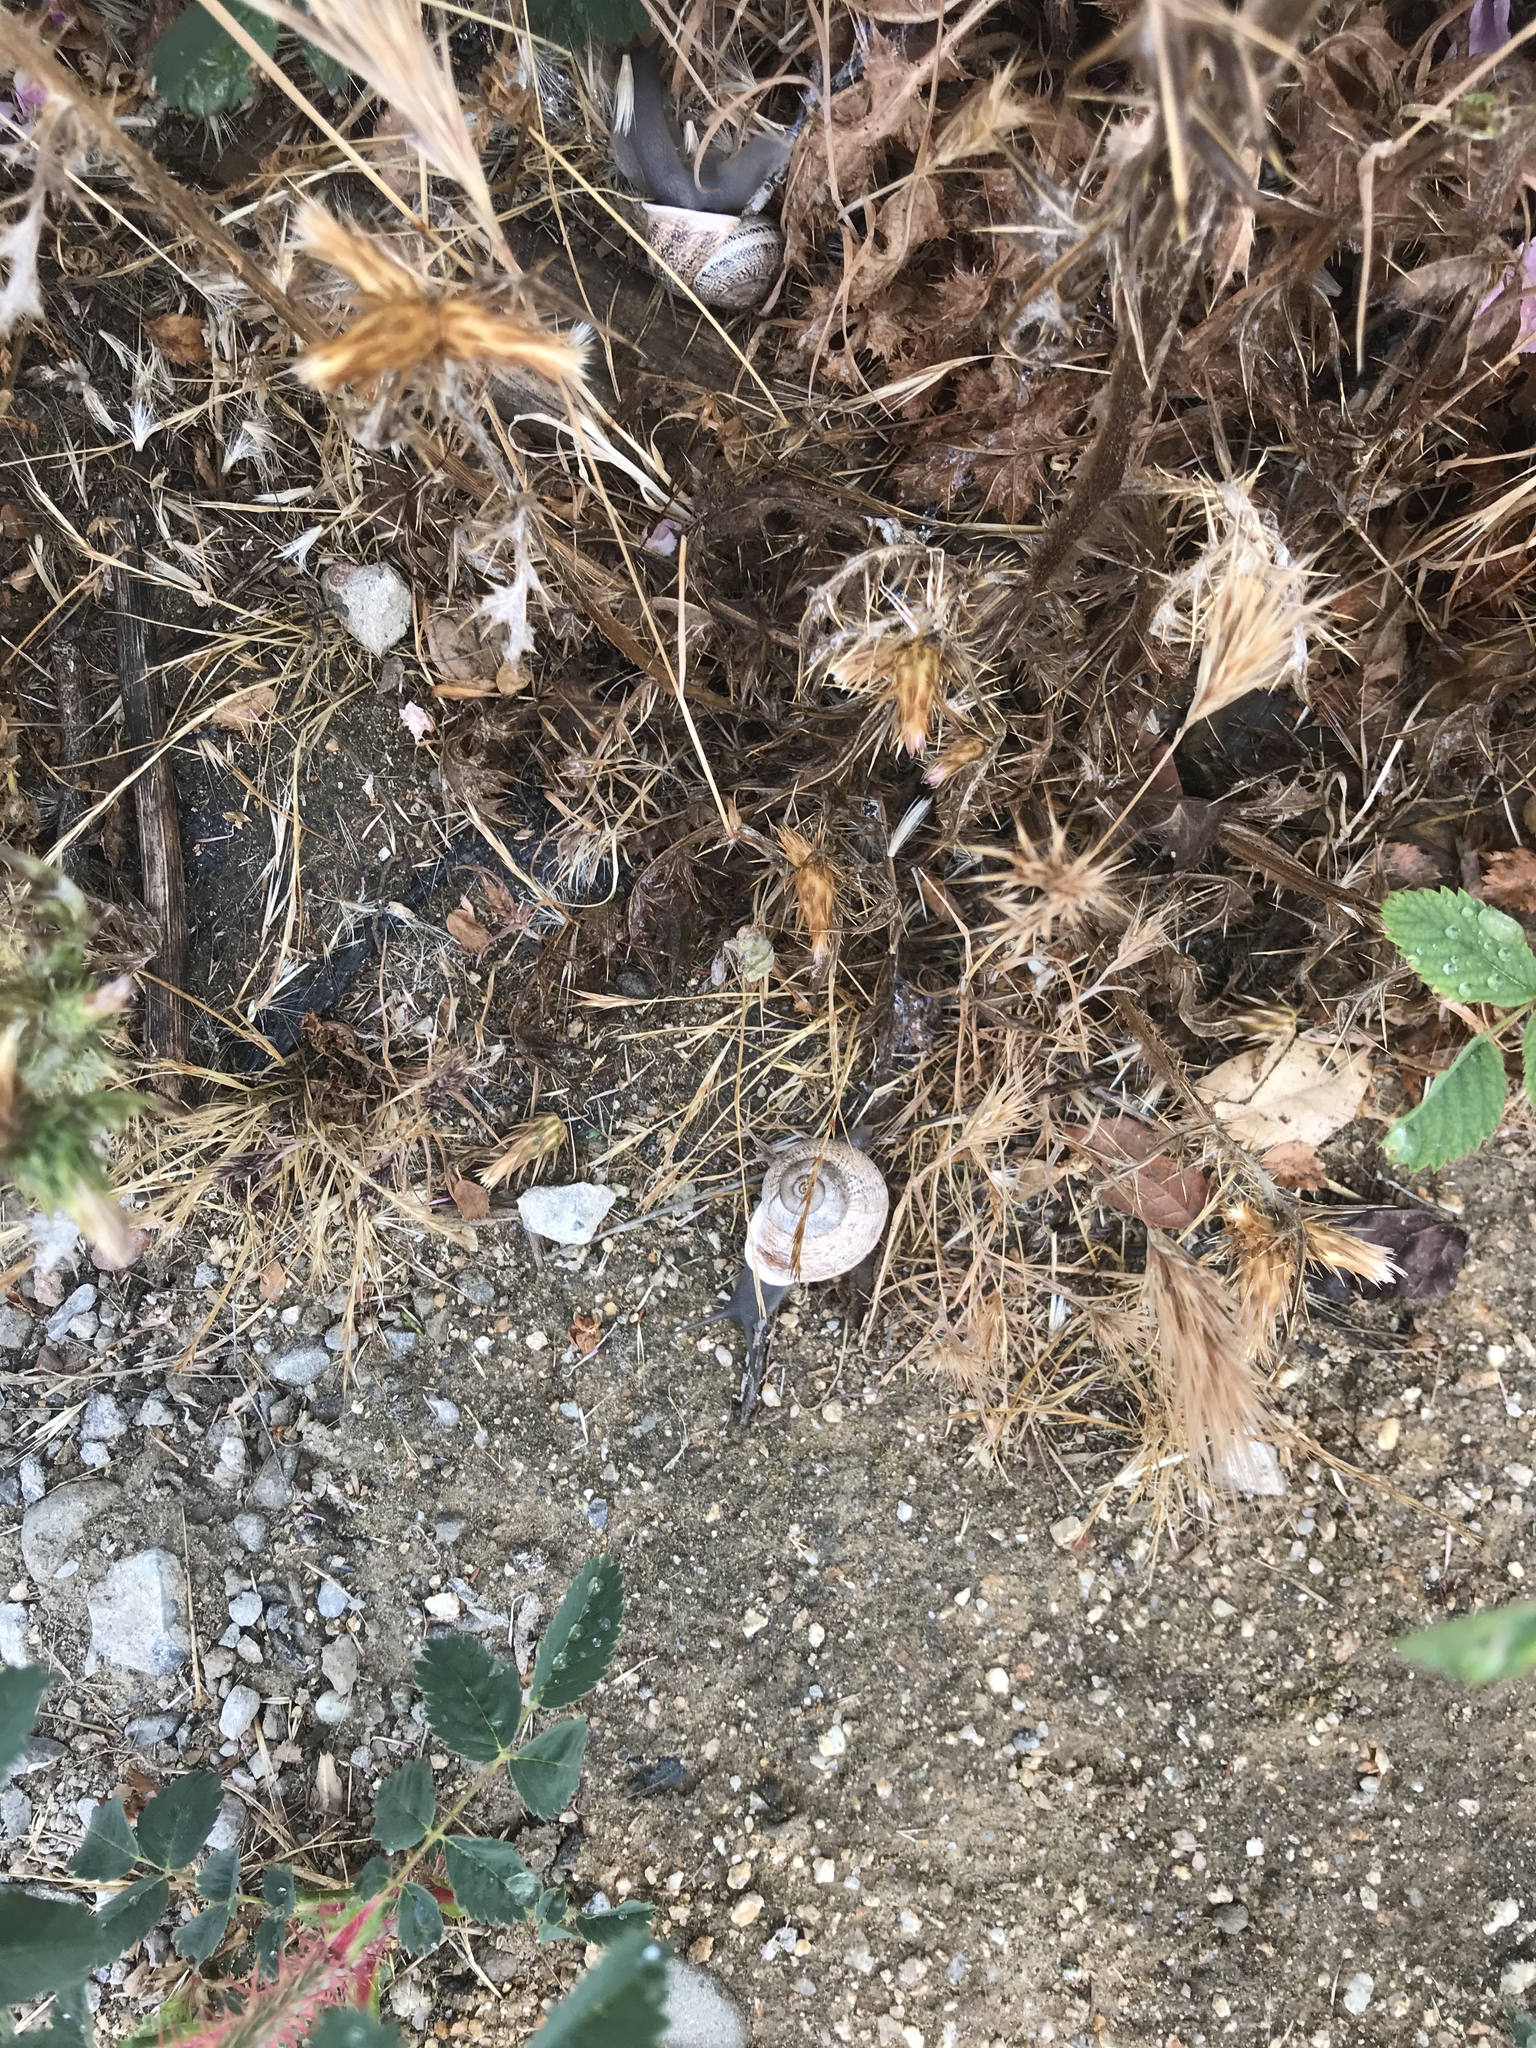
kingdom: Animalia
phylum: Mollusca
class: Gastropoda
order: Stylommatophora
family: Helicidae
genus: Otala
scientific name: Otala lactea
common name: Milk snail
